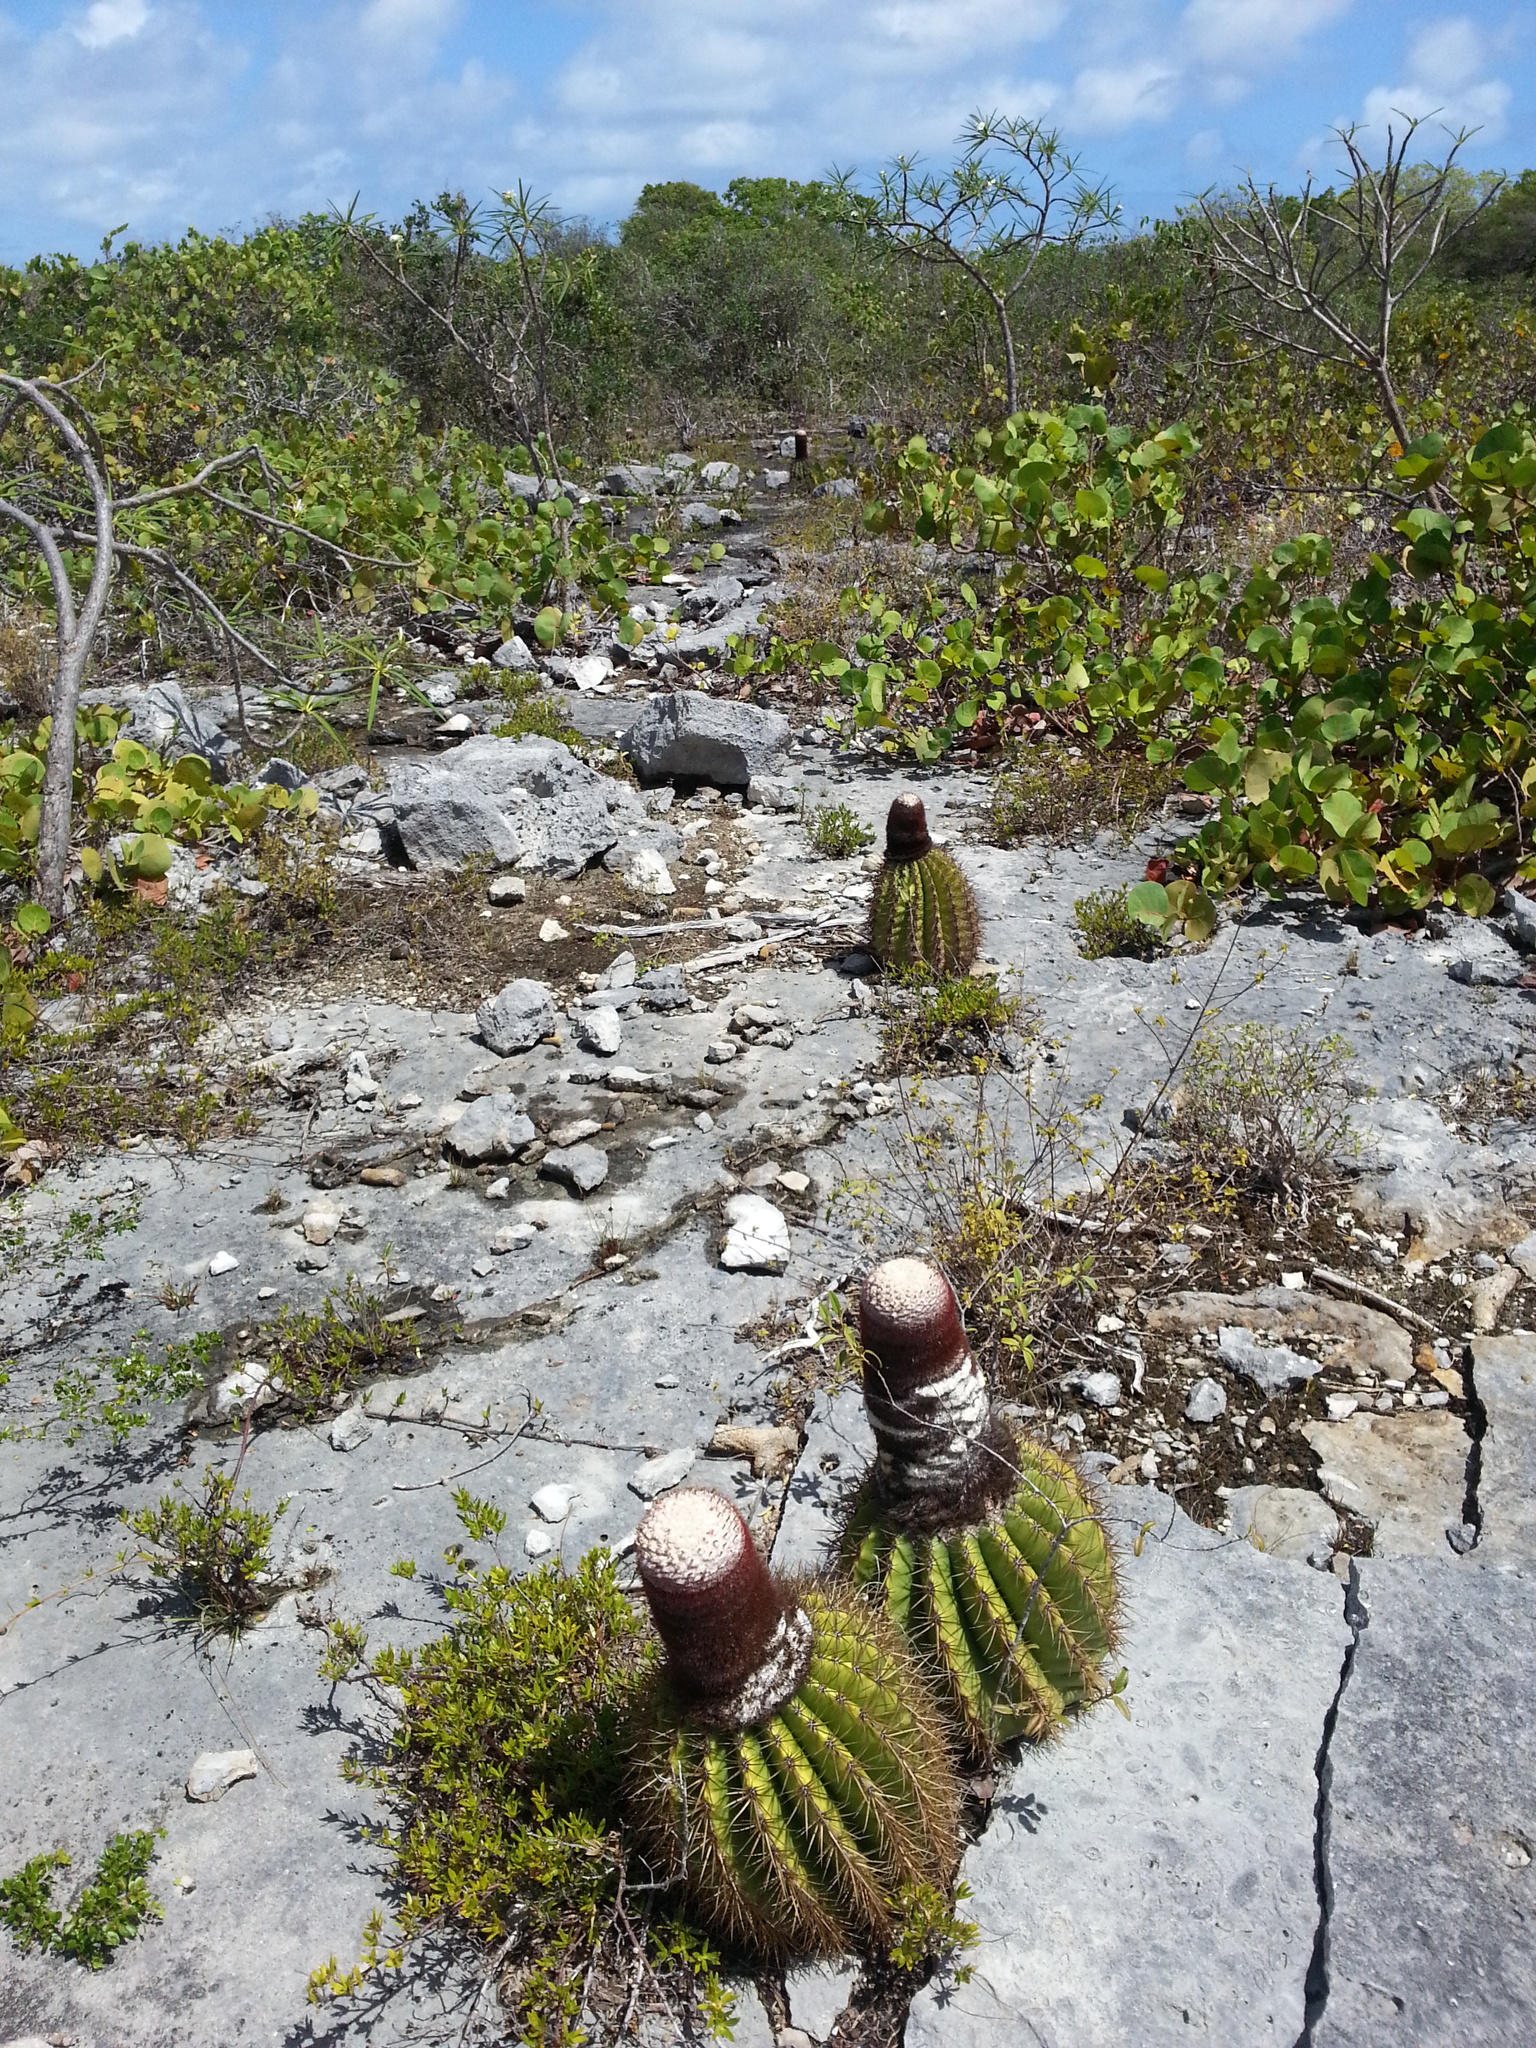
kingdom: Plantae
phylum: Tracheophyta
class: Magnoliopsida
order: Caryophyllales
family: Cactaceae
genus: Melocactus
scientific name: Melocactus intortus
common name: Barrel cactus
